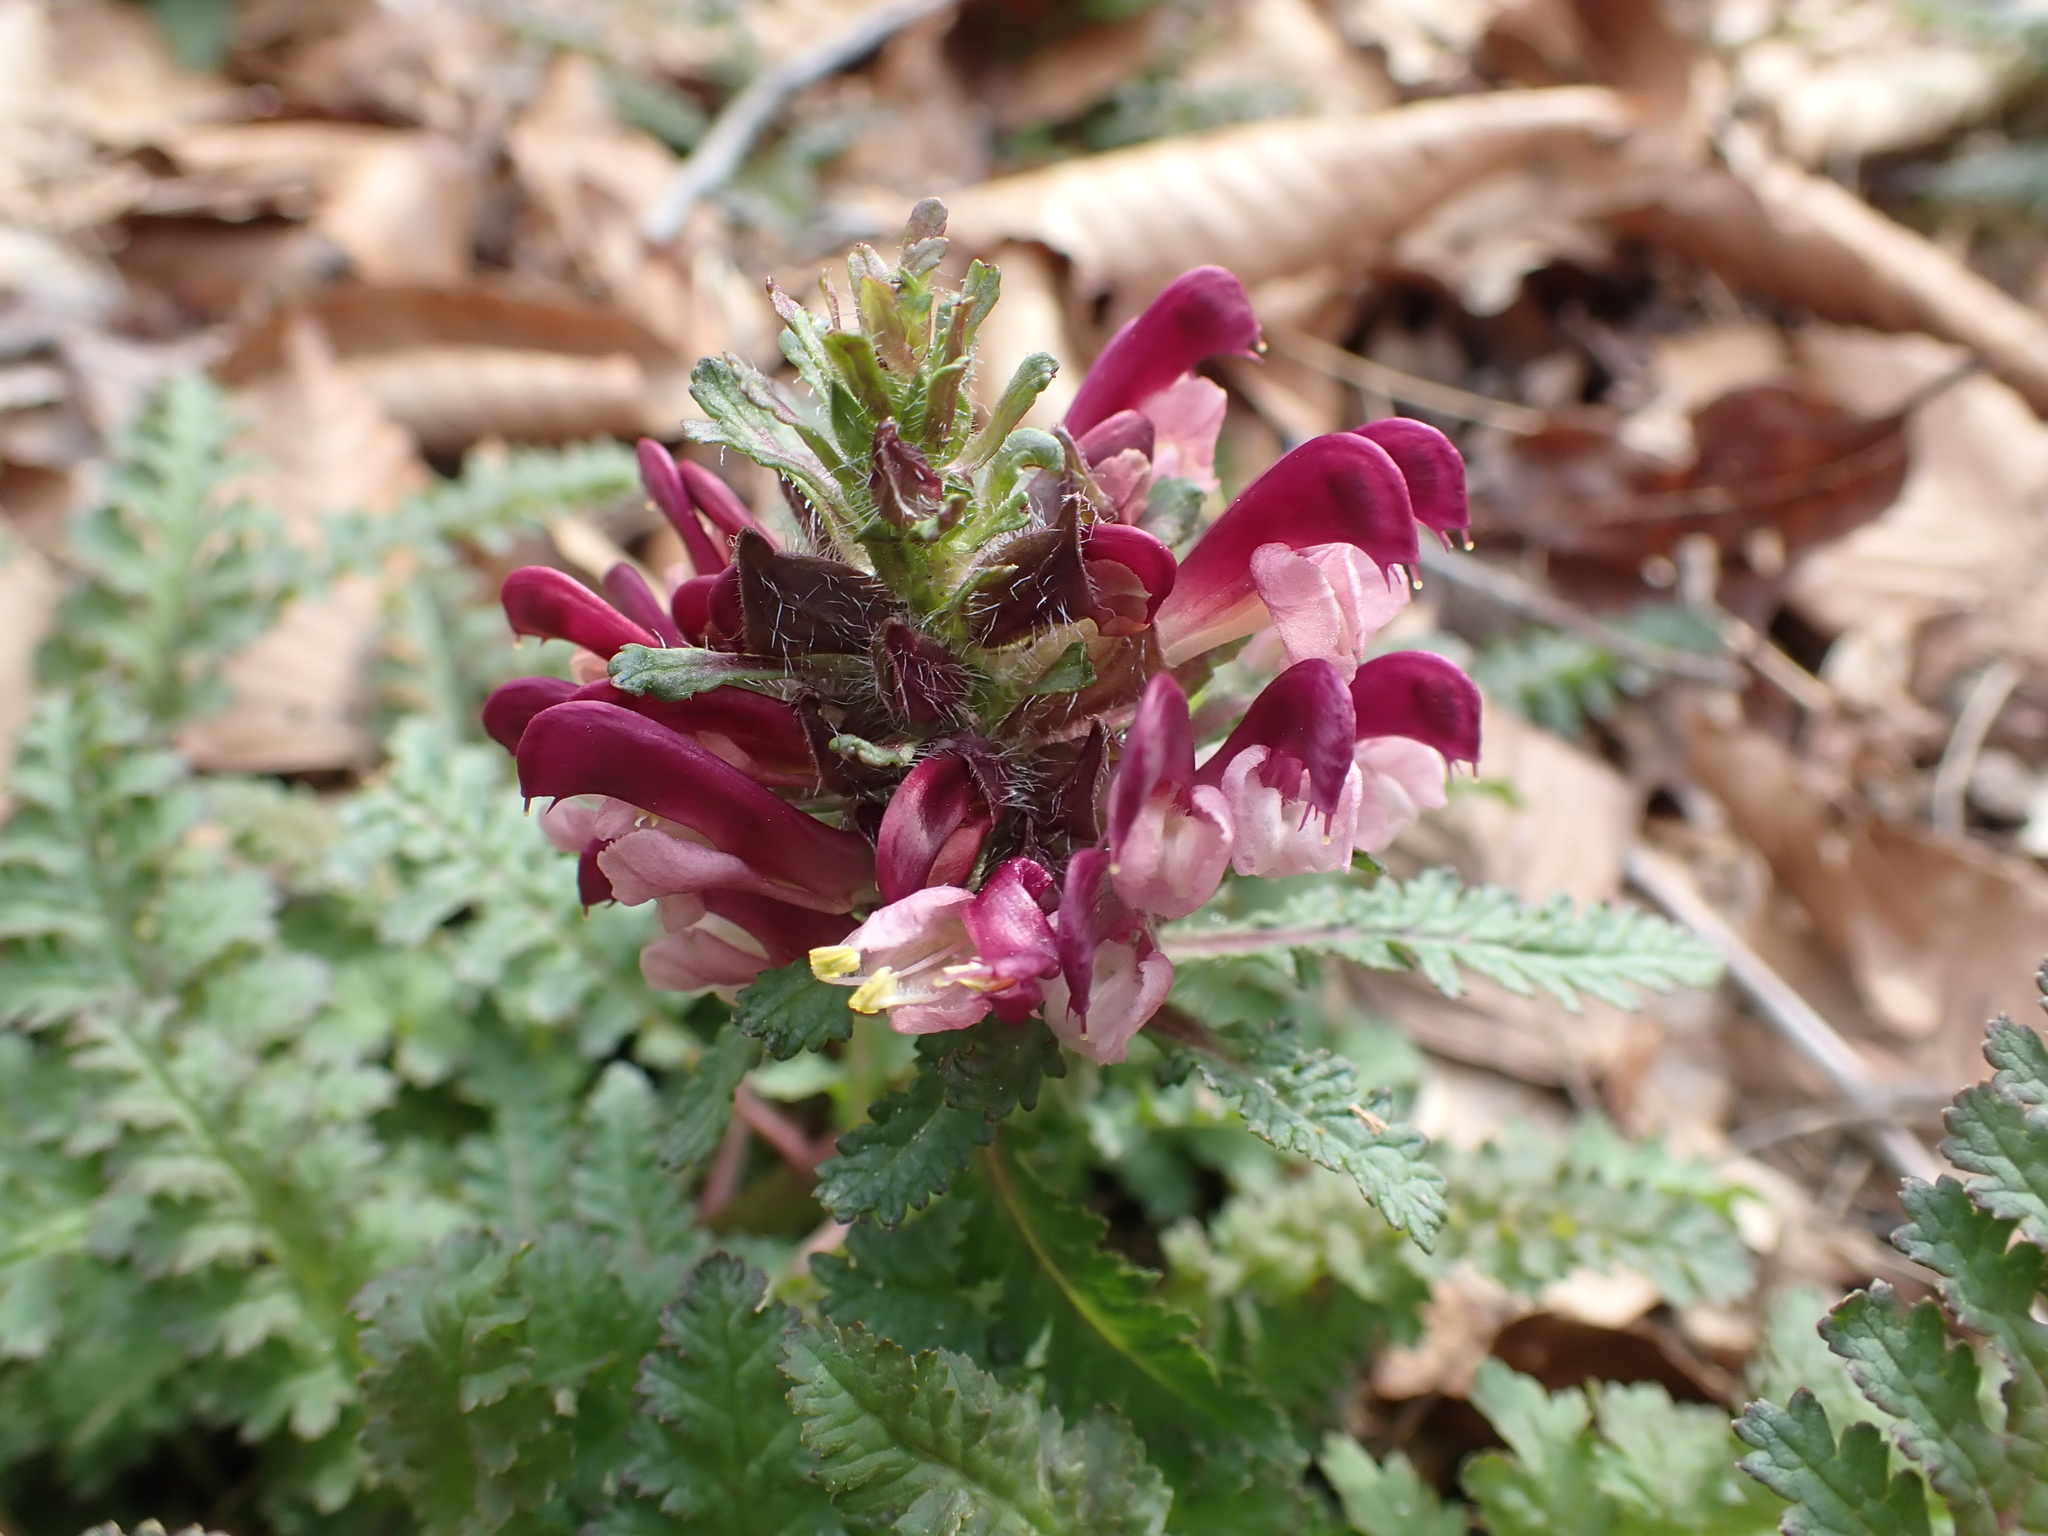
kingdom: Plantae
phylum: Tracheophyta
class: Magnoliopsida
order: Lamiales
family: Orobanchaceae
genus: Pedicularis
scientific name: Pedicularis canadensis
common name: Early lousewort
